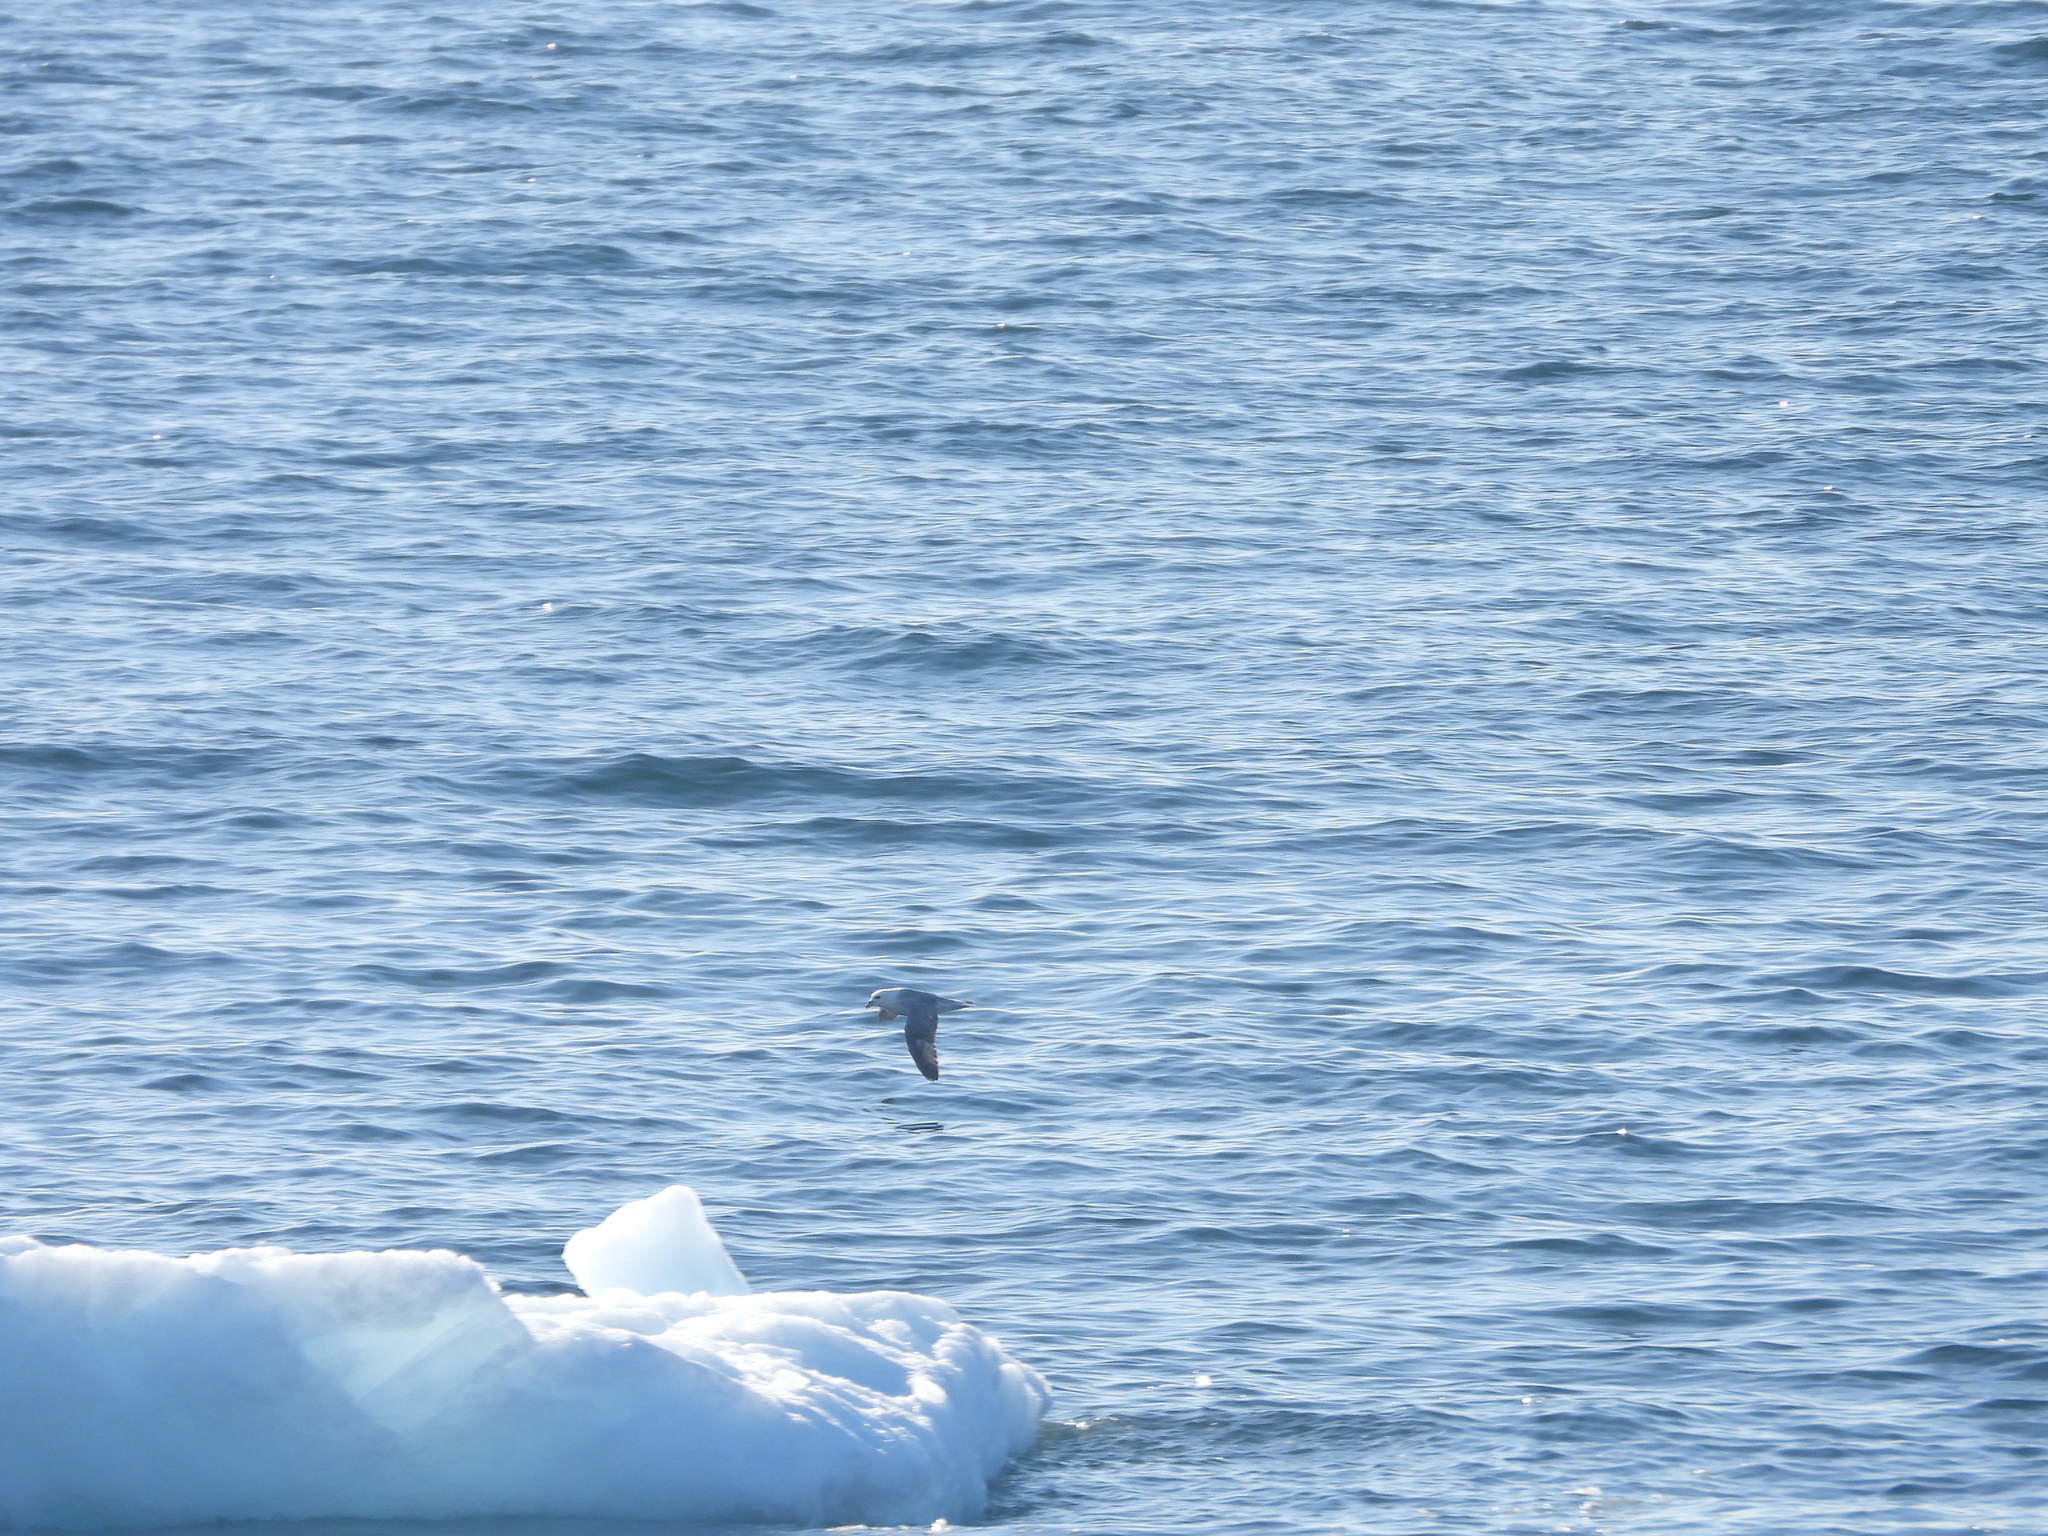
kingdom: Animalia
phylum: Chordata
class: Aves
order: Procellariiformes
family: Procellariidae
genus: Fulmarus
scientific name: Fulmarus glacialis
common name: Northern fulmar
